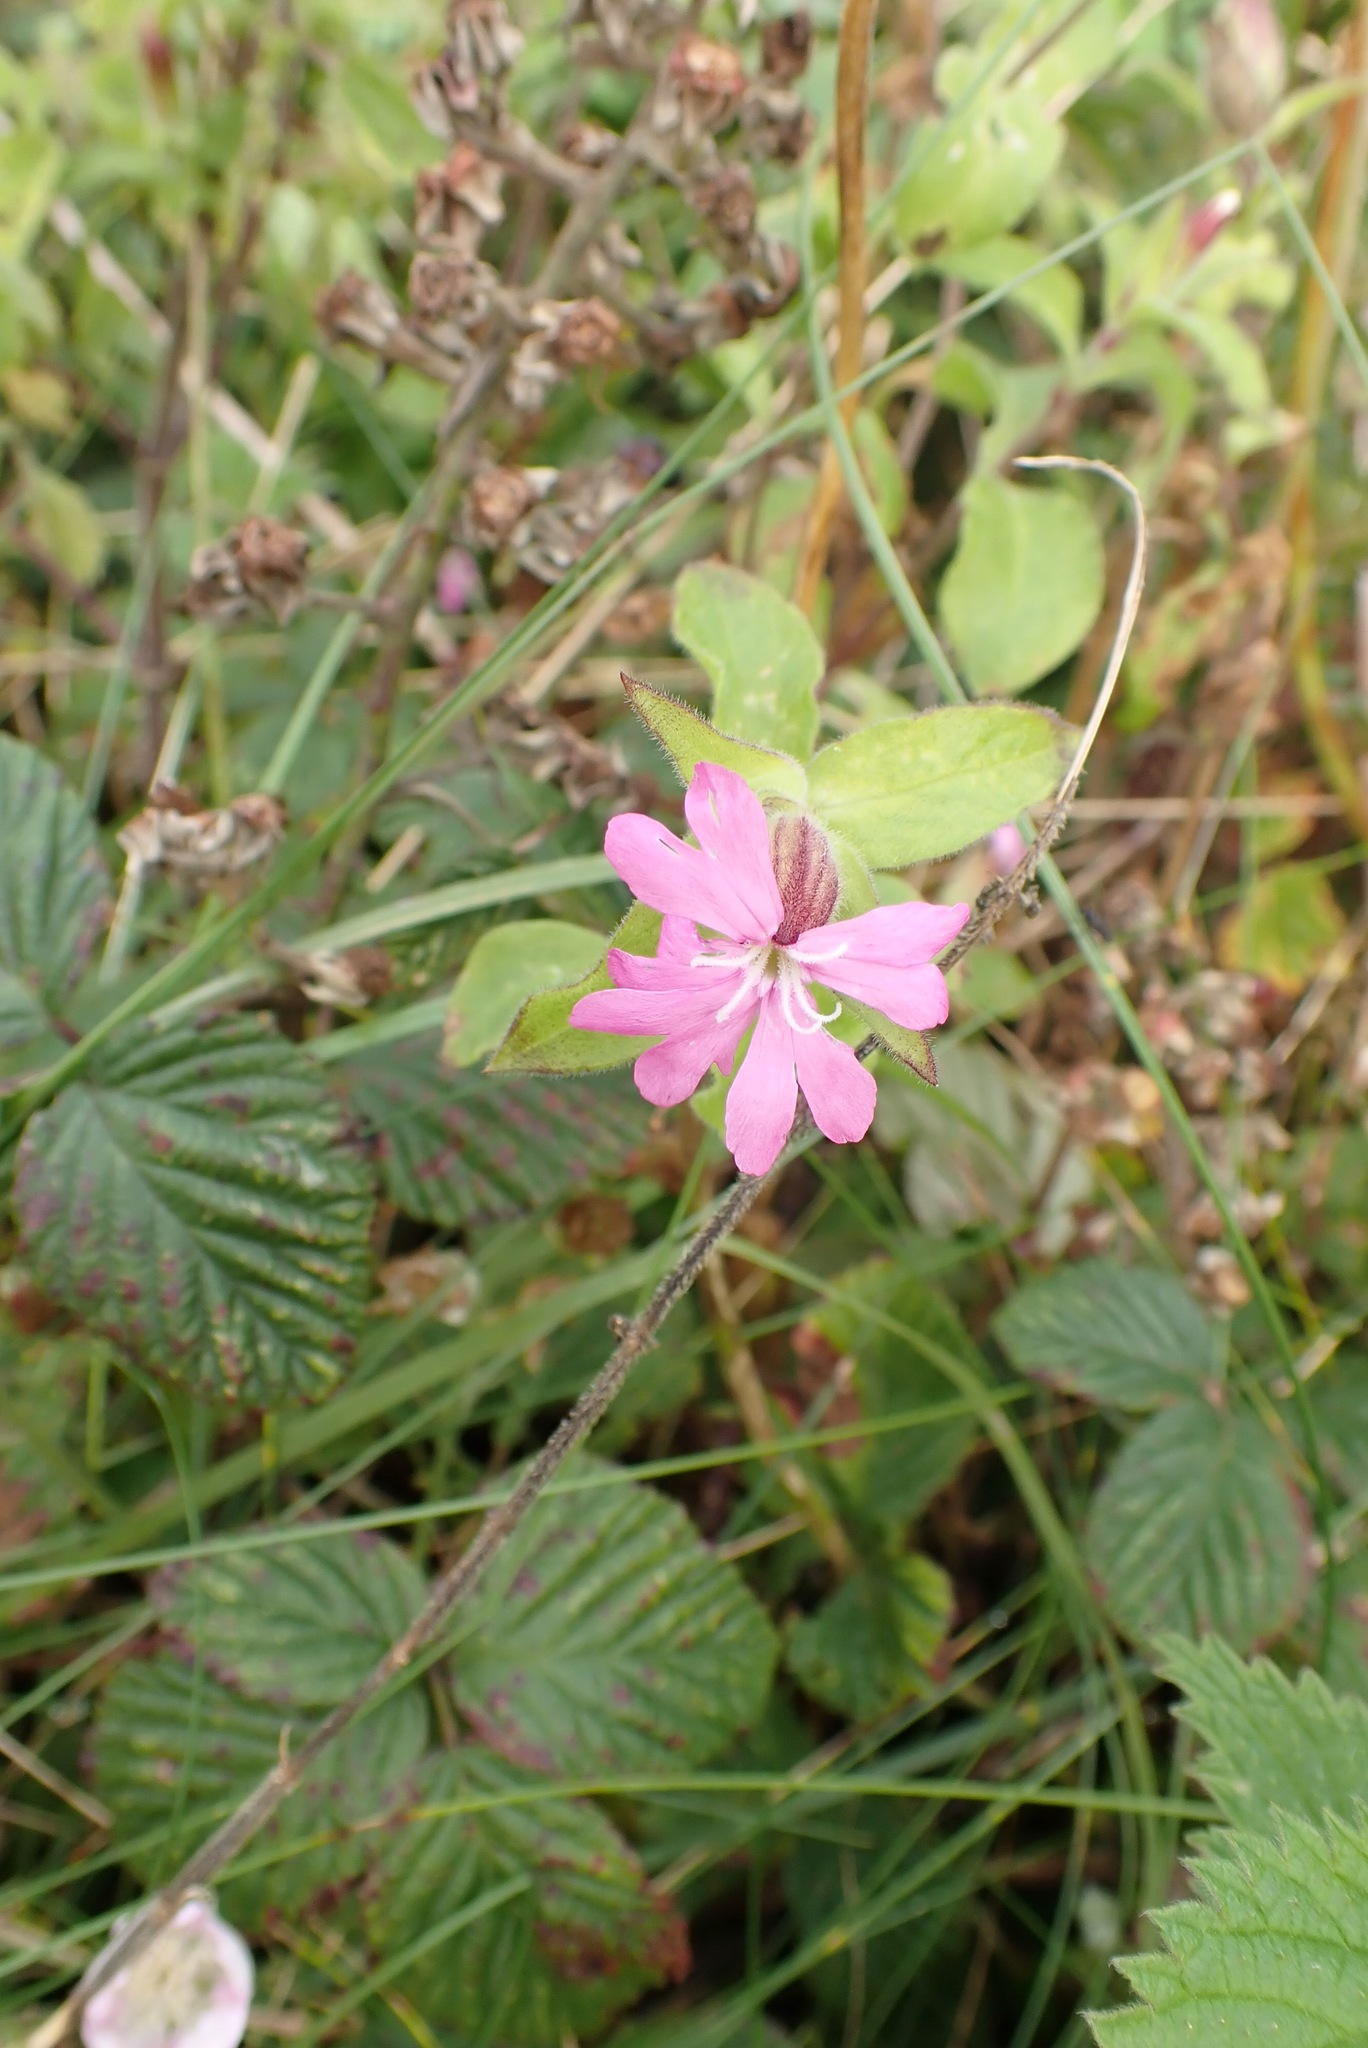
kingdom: Plantae
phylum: Tracheophyta
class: Magnoliopsida
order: Caryophyllales
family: Caryophyllaceae
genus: Silene
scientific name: Silene dioica
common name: Red campion
